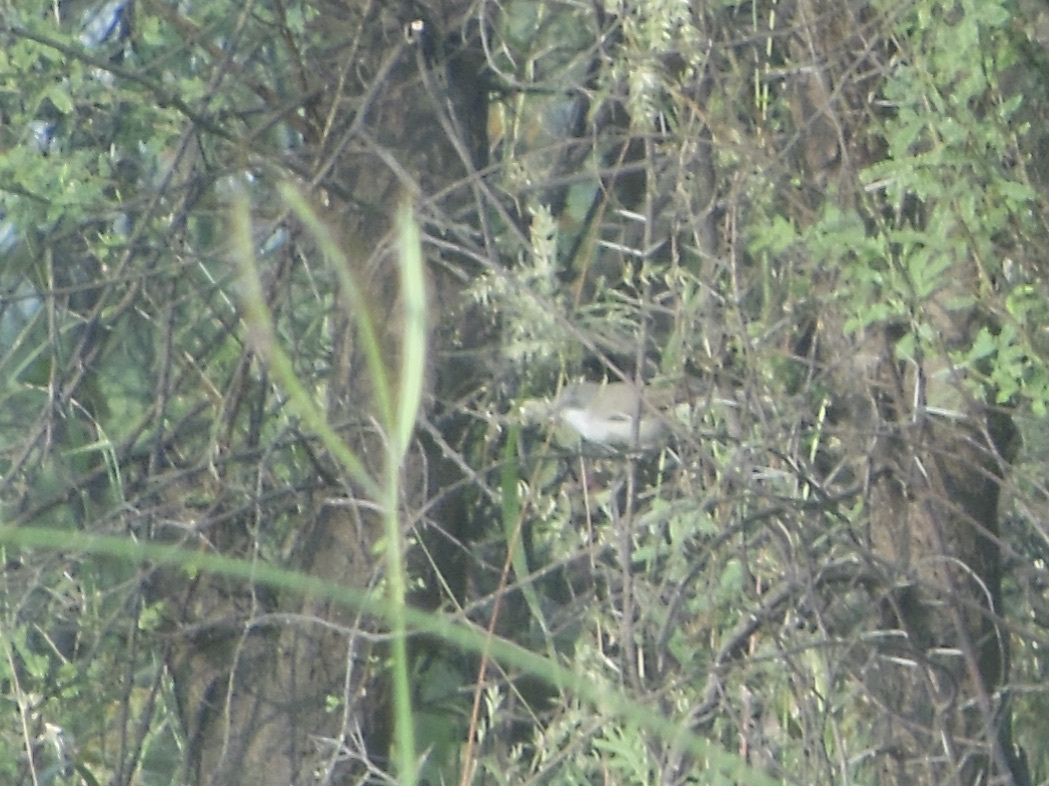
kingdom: Animalia
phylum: Chordata
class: Aves
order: Passeriformes
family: Sylviidae
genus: Sylvia
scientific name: Sylvia curruca
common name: Lesser whitethroat
